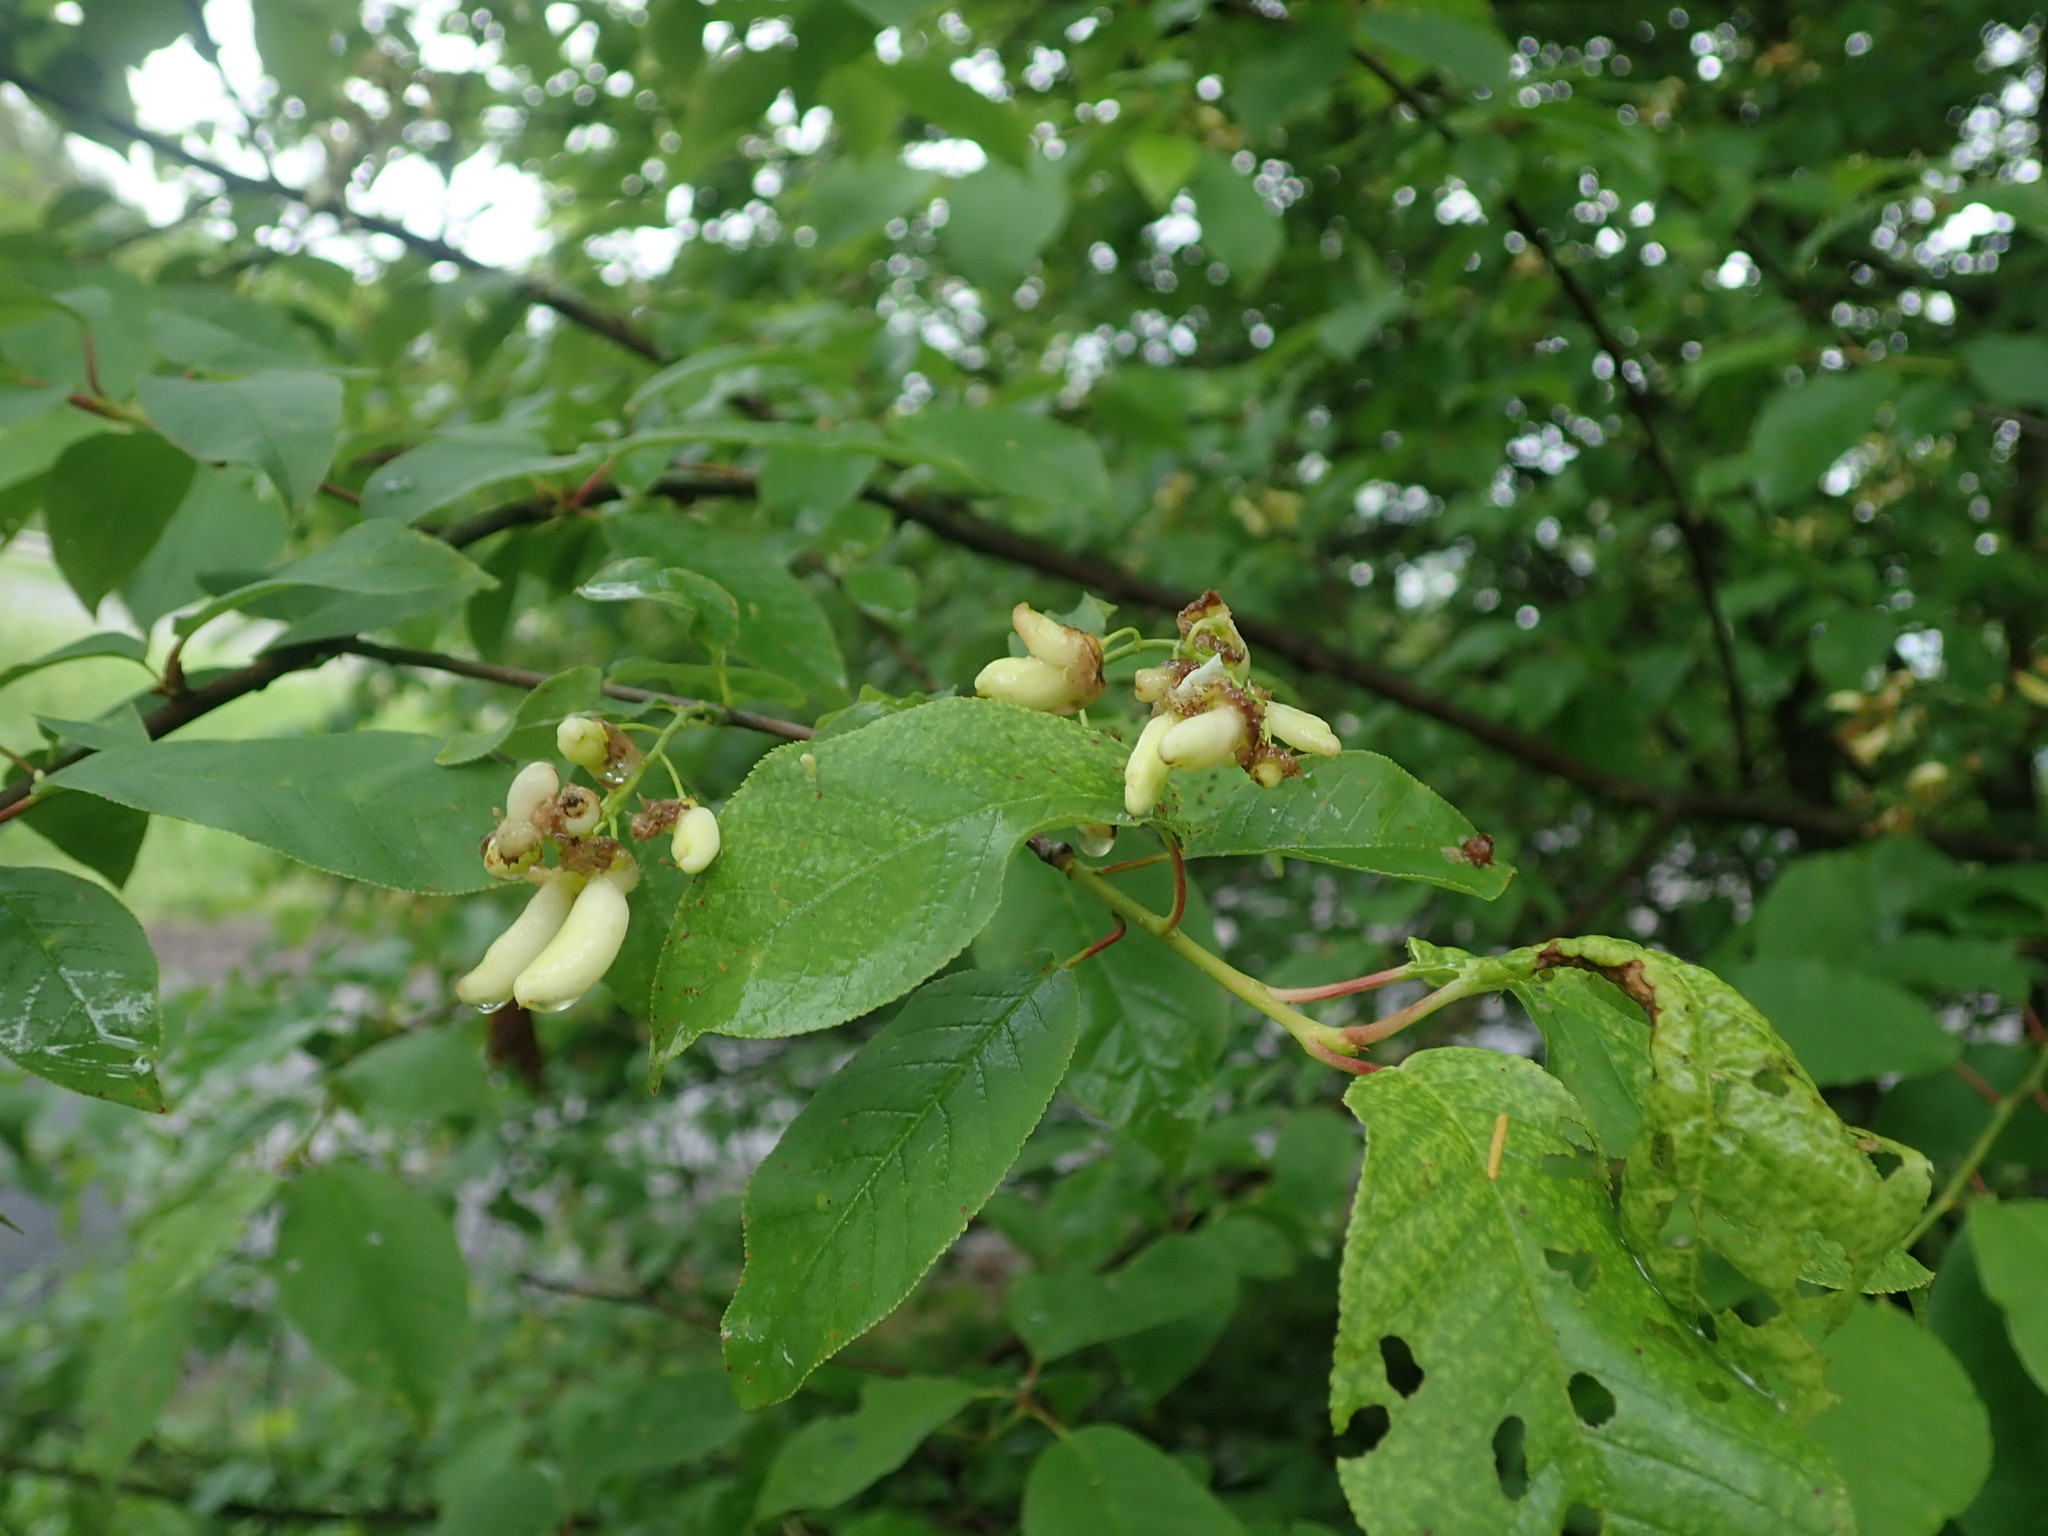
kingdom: Fungi
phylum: Ascomycota
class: Taphrinomycetes
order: Taphrinales
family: Taphrinaceae
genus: Taphrina
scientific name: Taphrina padi
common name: Bird cherry pocket
